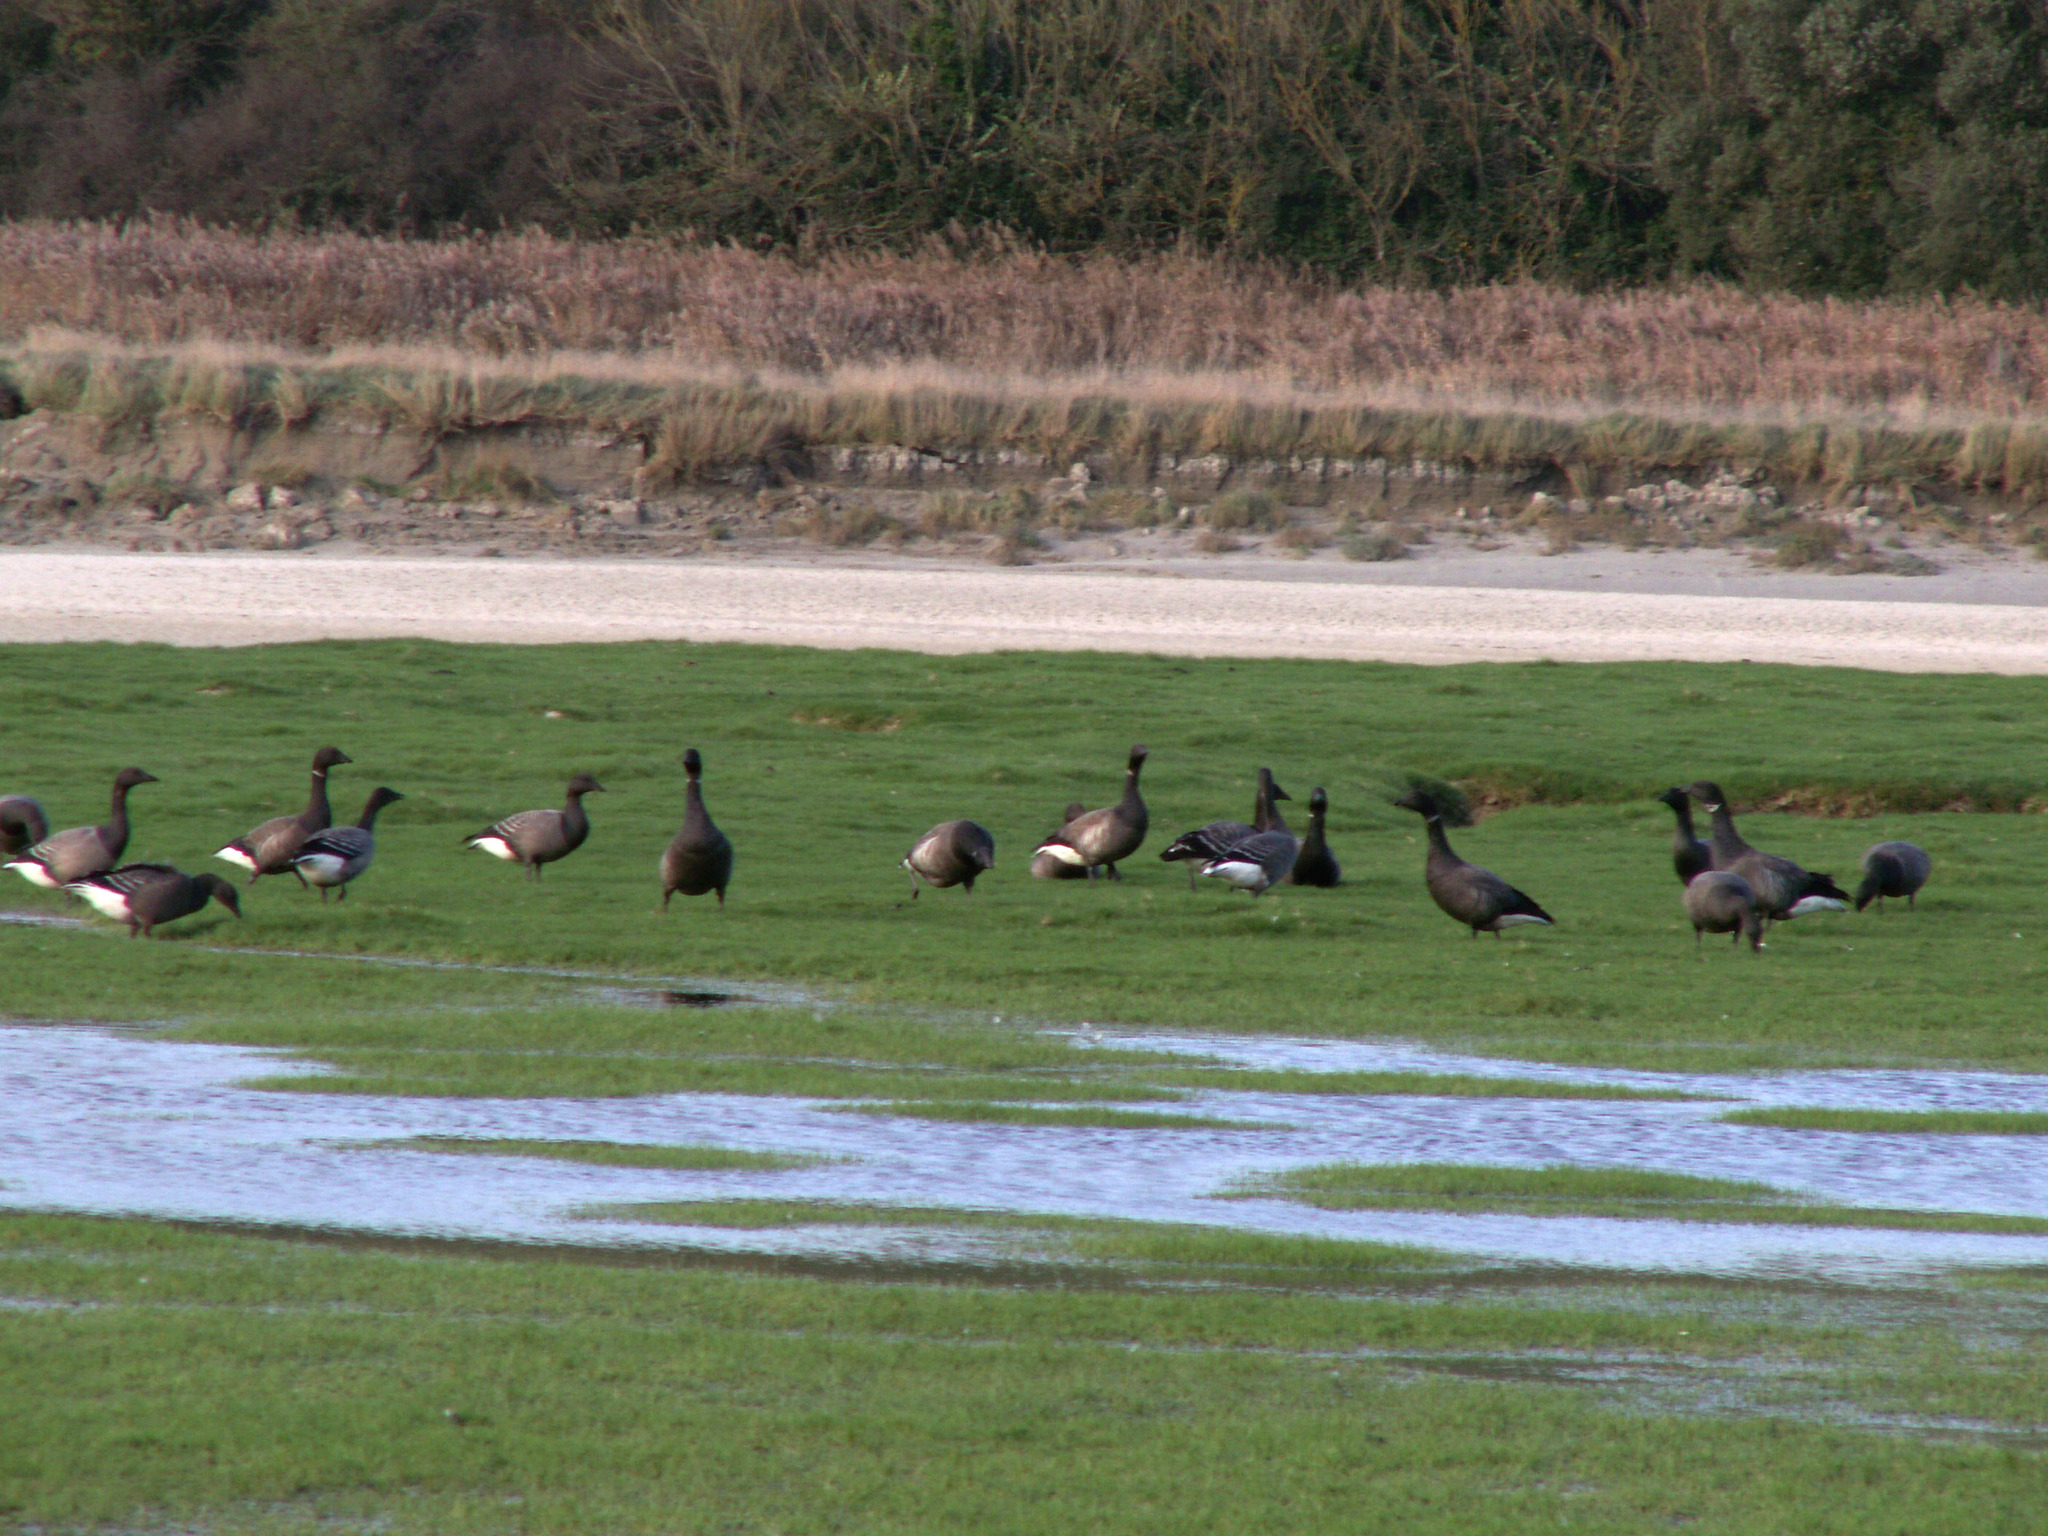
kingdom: Animalia
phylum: Chordata
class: Aves
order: Anseriformes
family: Anatidae
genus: Branta
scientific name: Branta bernicla
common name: Brant goose
